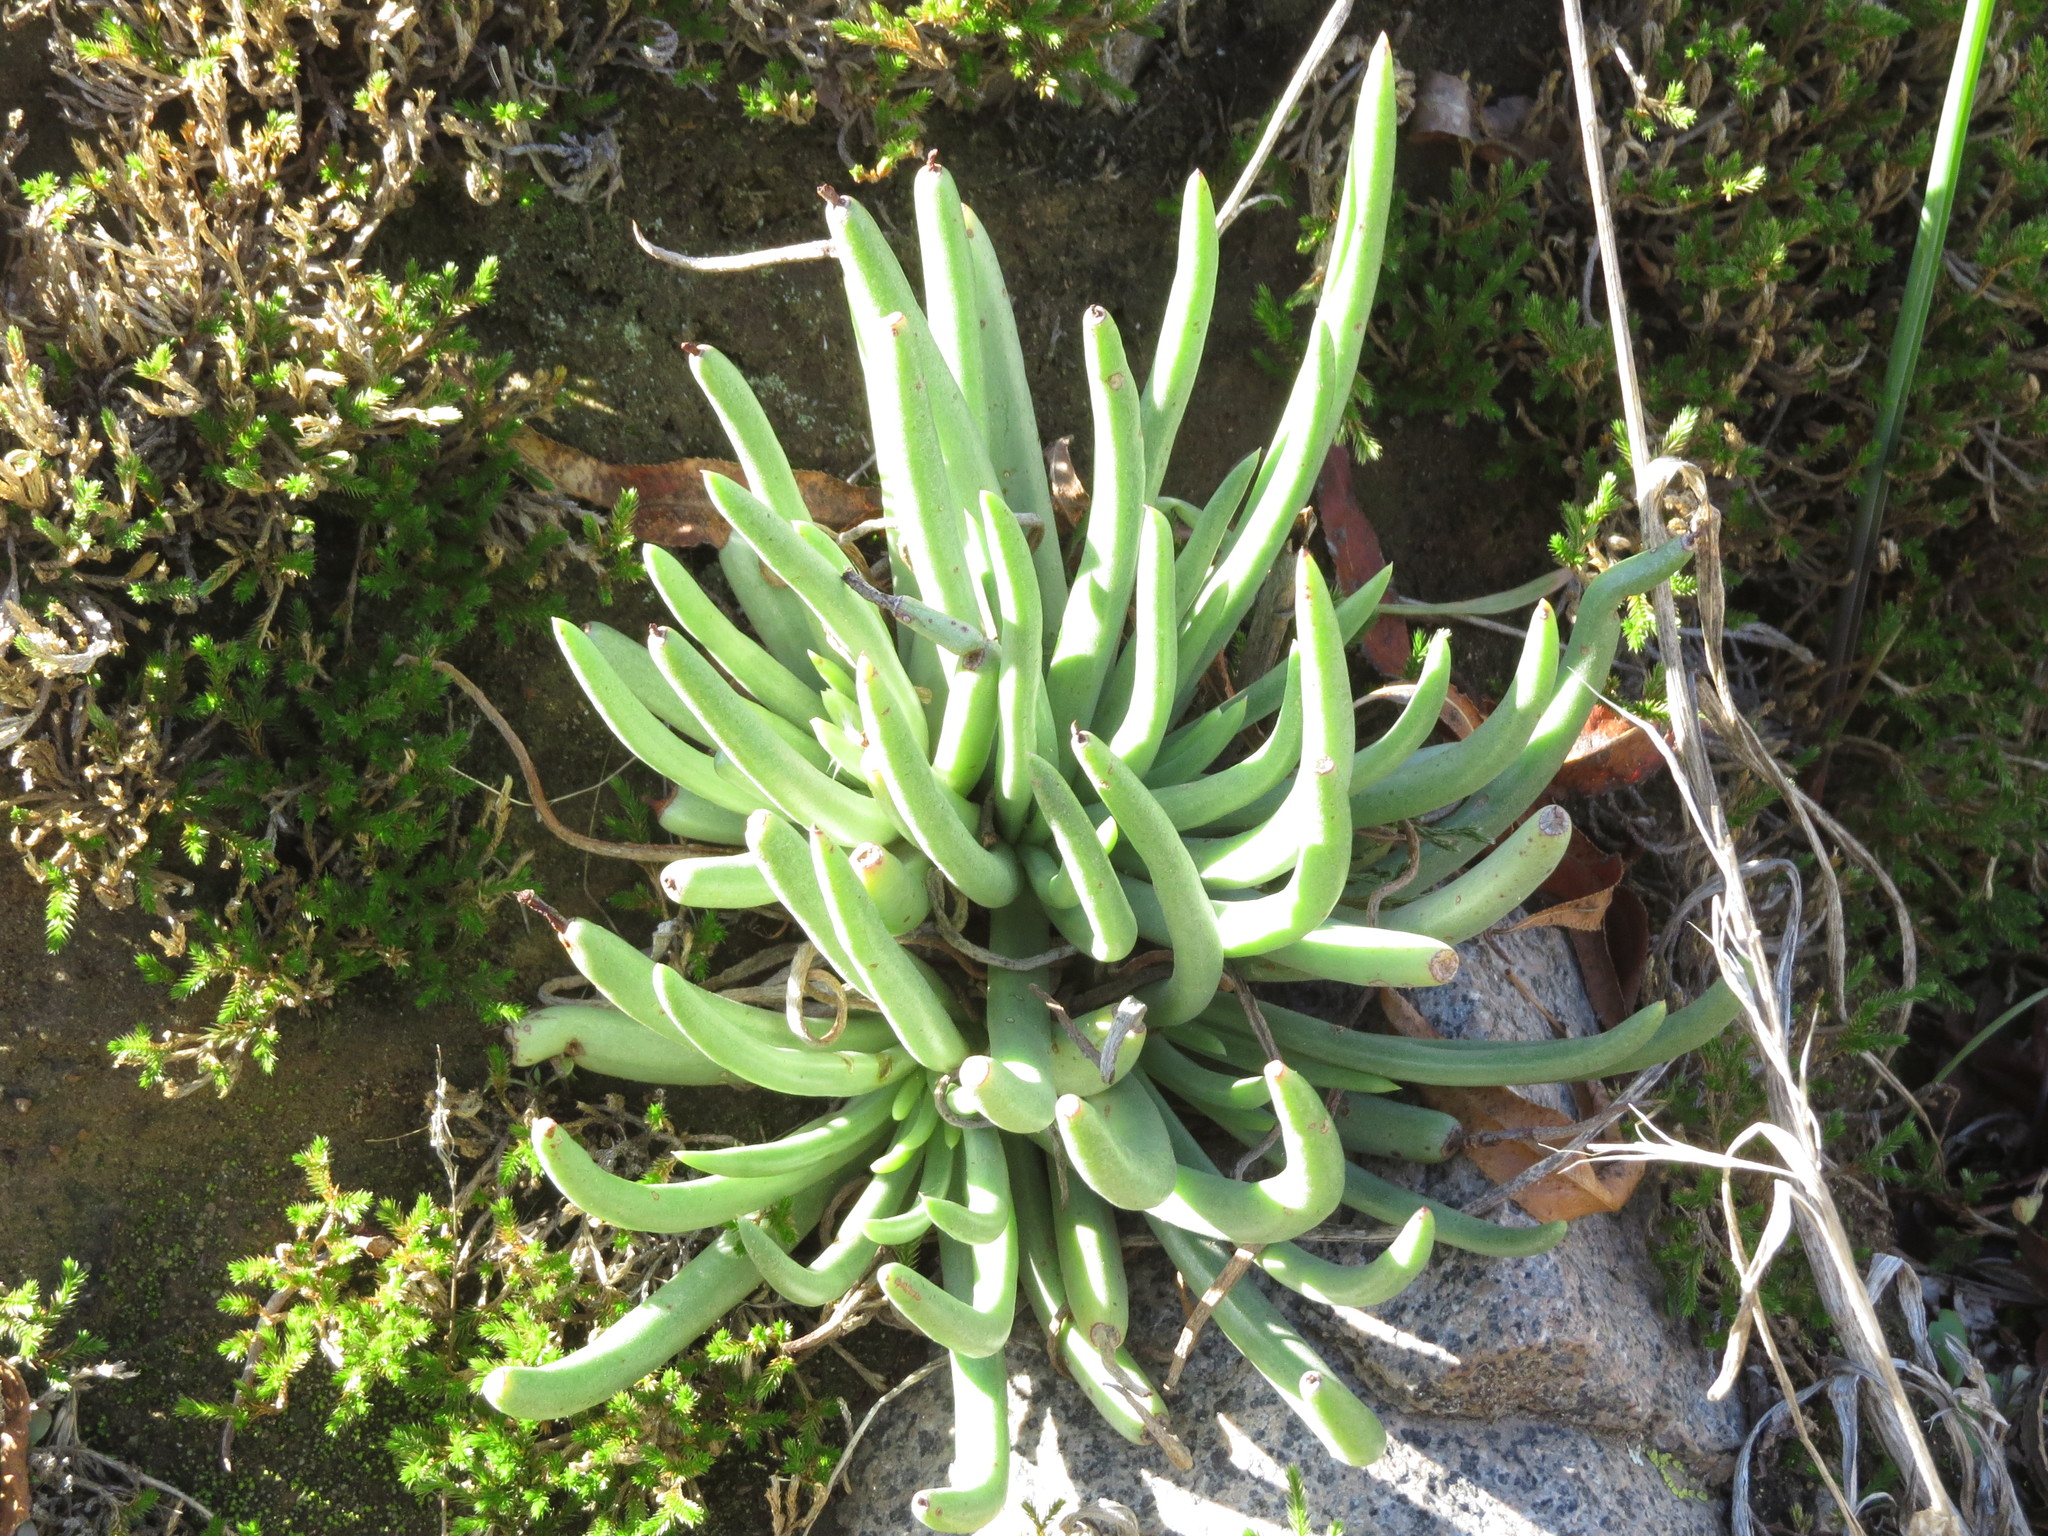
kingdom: Plantae
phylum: Tracheophyta
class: Magnoliopsida
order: Saxifragales
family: Crassulaceae
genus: Dudleya
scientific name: Dudleya edulis
